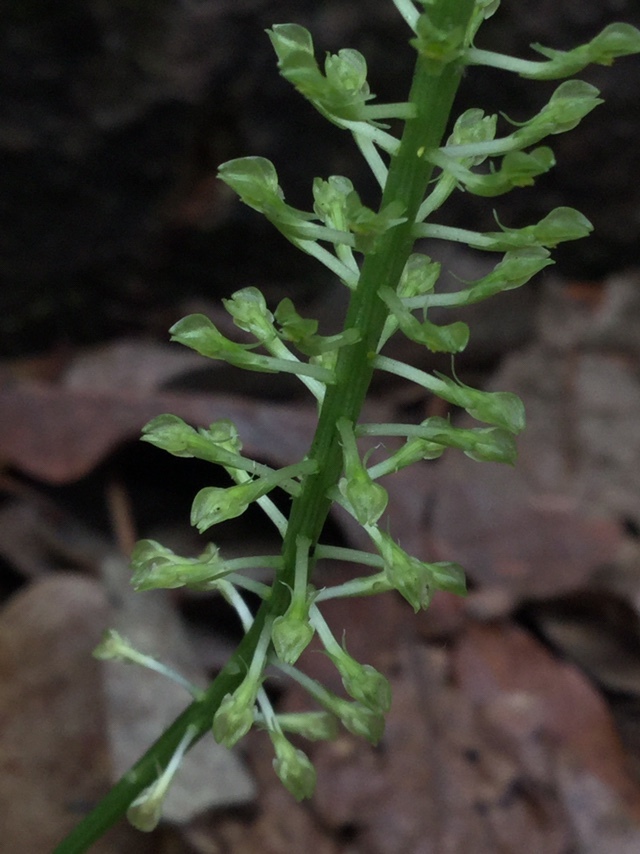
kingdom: Plantae
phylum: Tracheophyta
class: Liliopsida
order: Asparagales
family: Orchidaceae
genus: Malaxis
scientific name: Malaxis maianthemifolia
